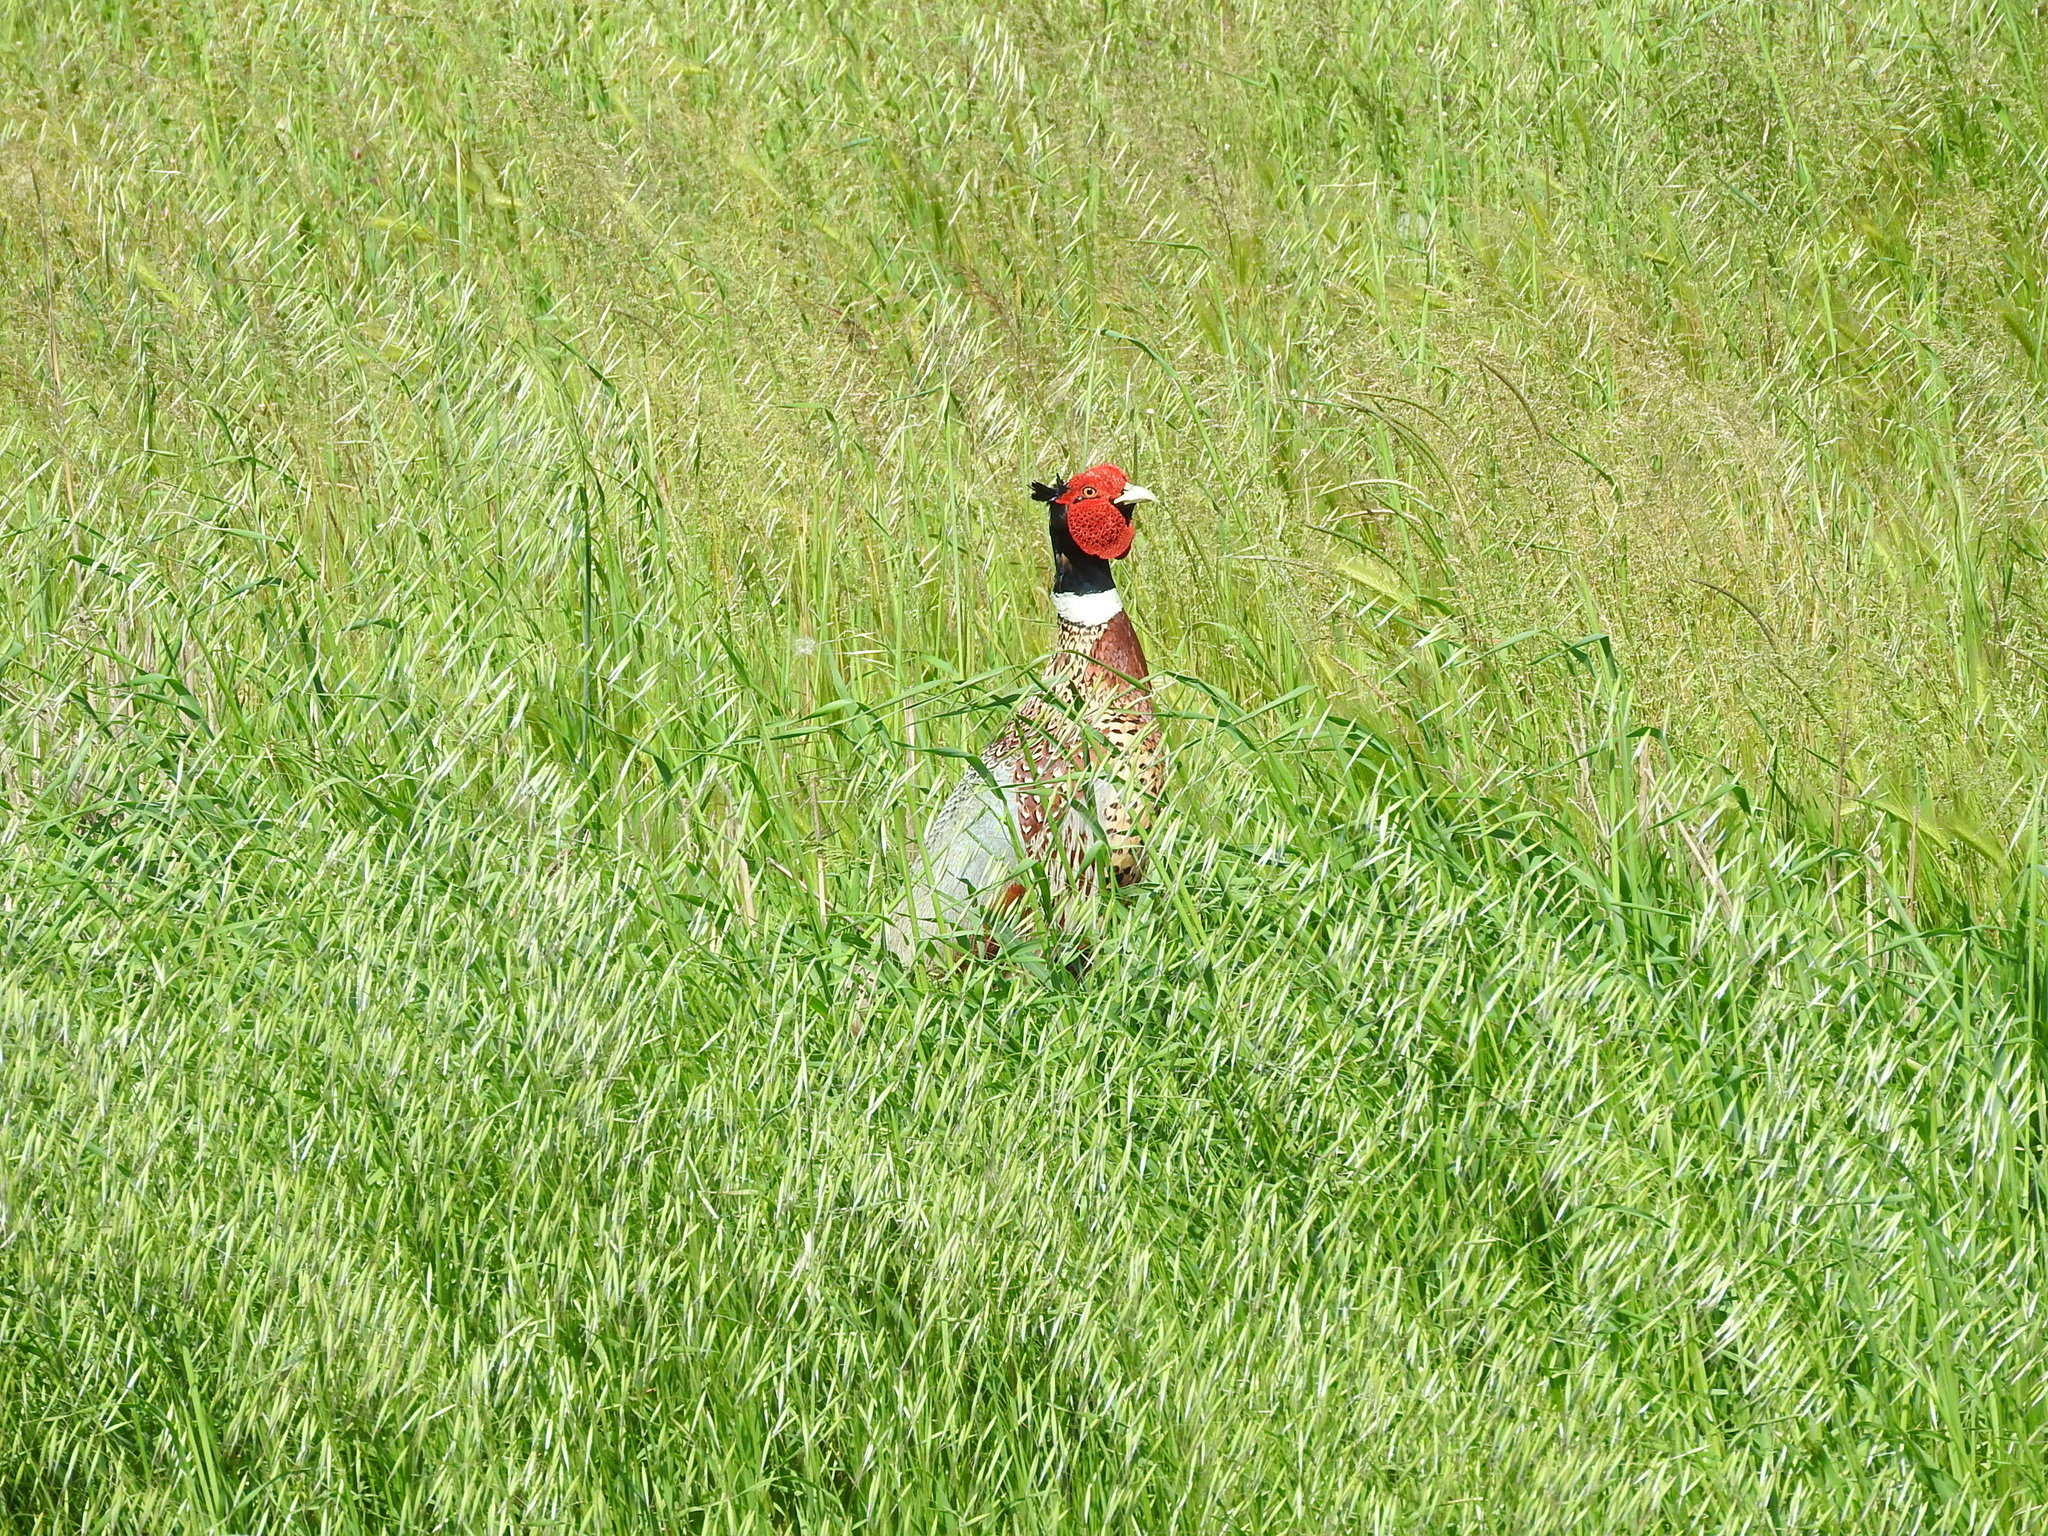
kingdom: Animalia
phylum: Chordata
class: Aves
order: Galliformes
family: Phasianidae
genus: Phasianus
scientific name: Phasianus colchicus
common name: Common pheasant
